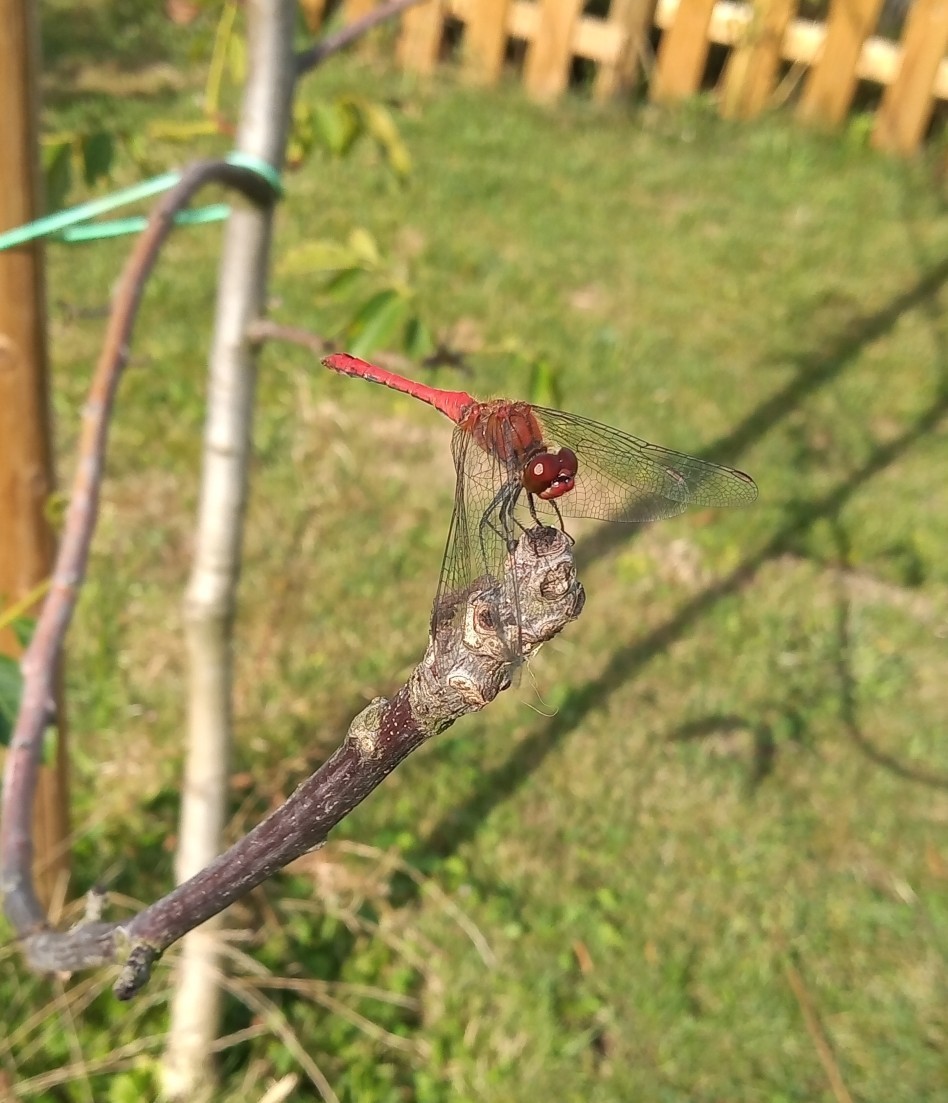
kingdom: Animalia
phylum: Arthropoda
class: Insecta
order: Odonata
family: Libellulidae
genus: Sympetrum
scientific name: Sympetrum sanguineum
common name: Ruddy darter
